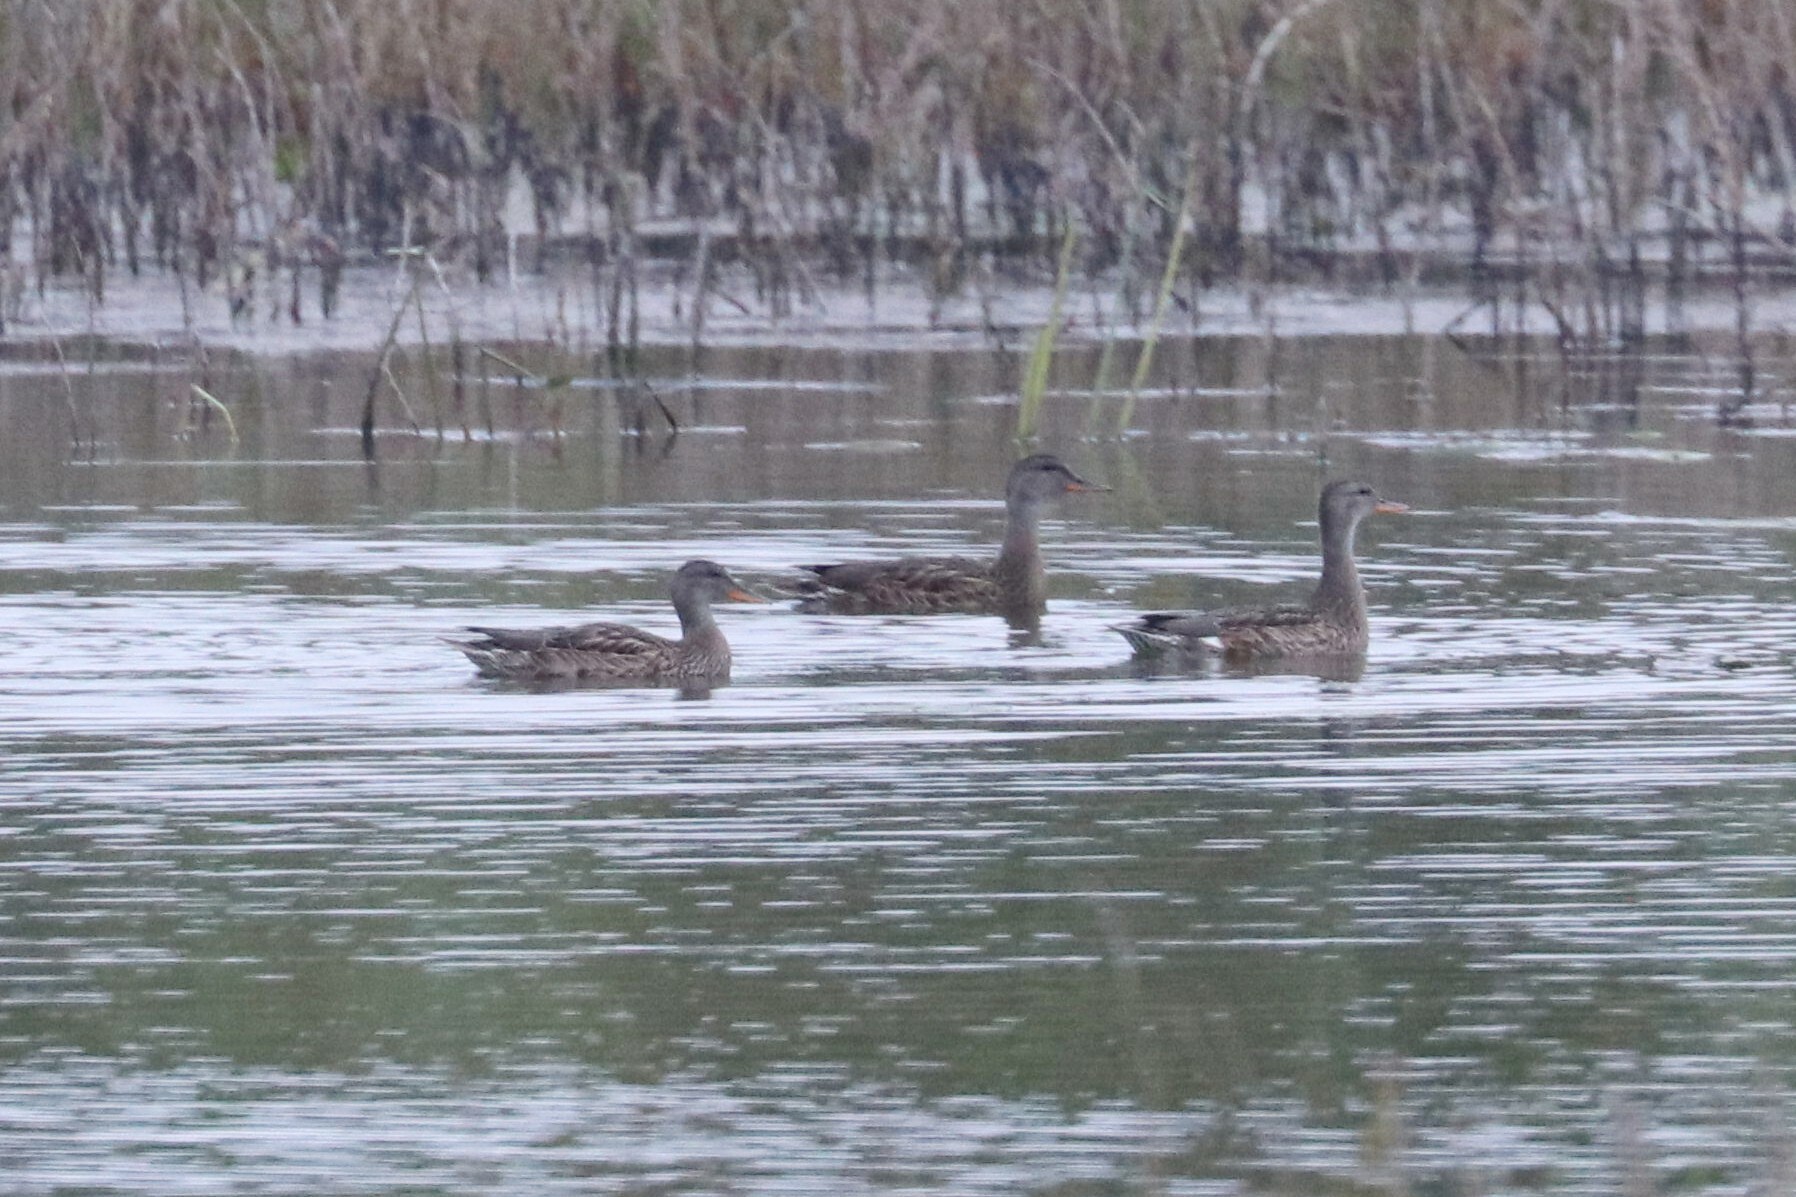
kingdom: Animalia
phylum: Chordata
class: Aves
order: Anseriformes
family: Anatidae
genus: Mareca
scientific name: Mareca strepera
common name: Gadwall
